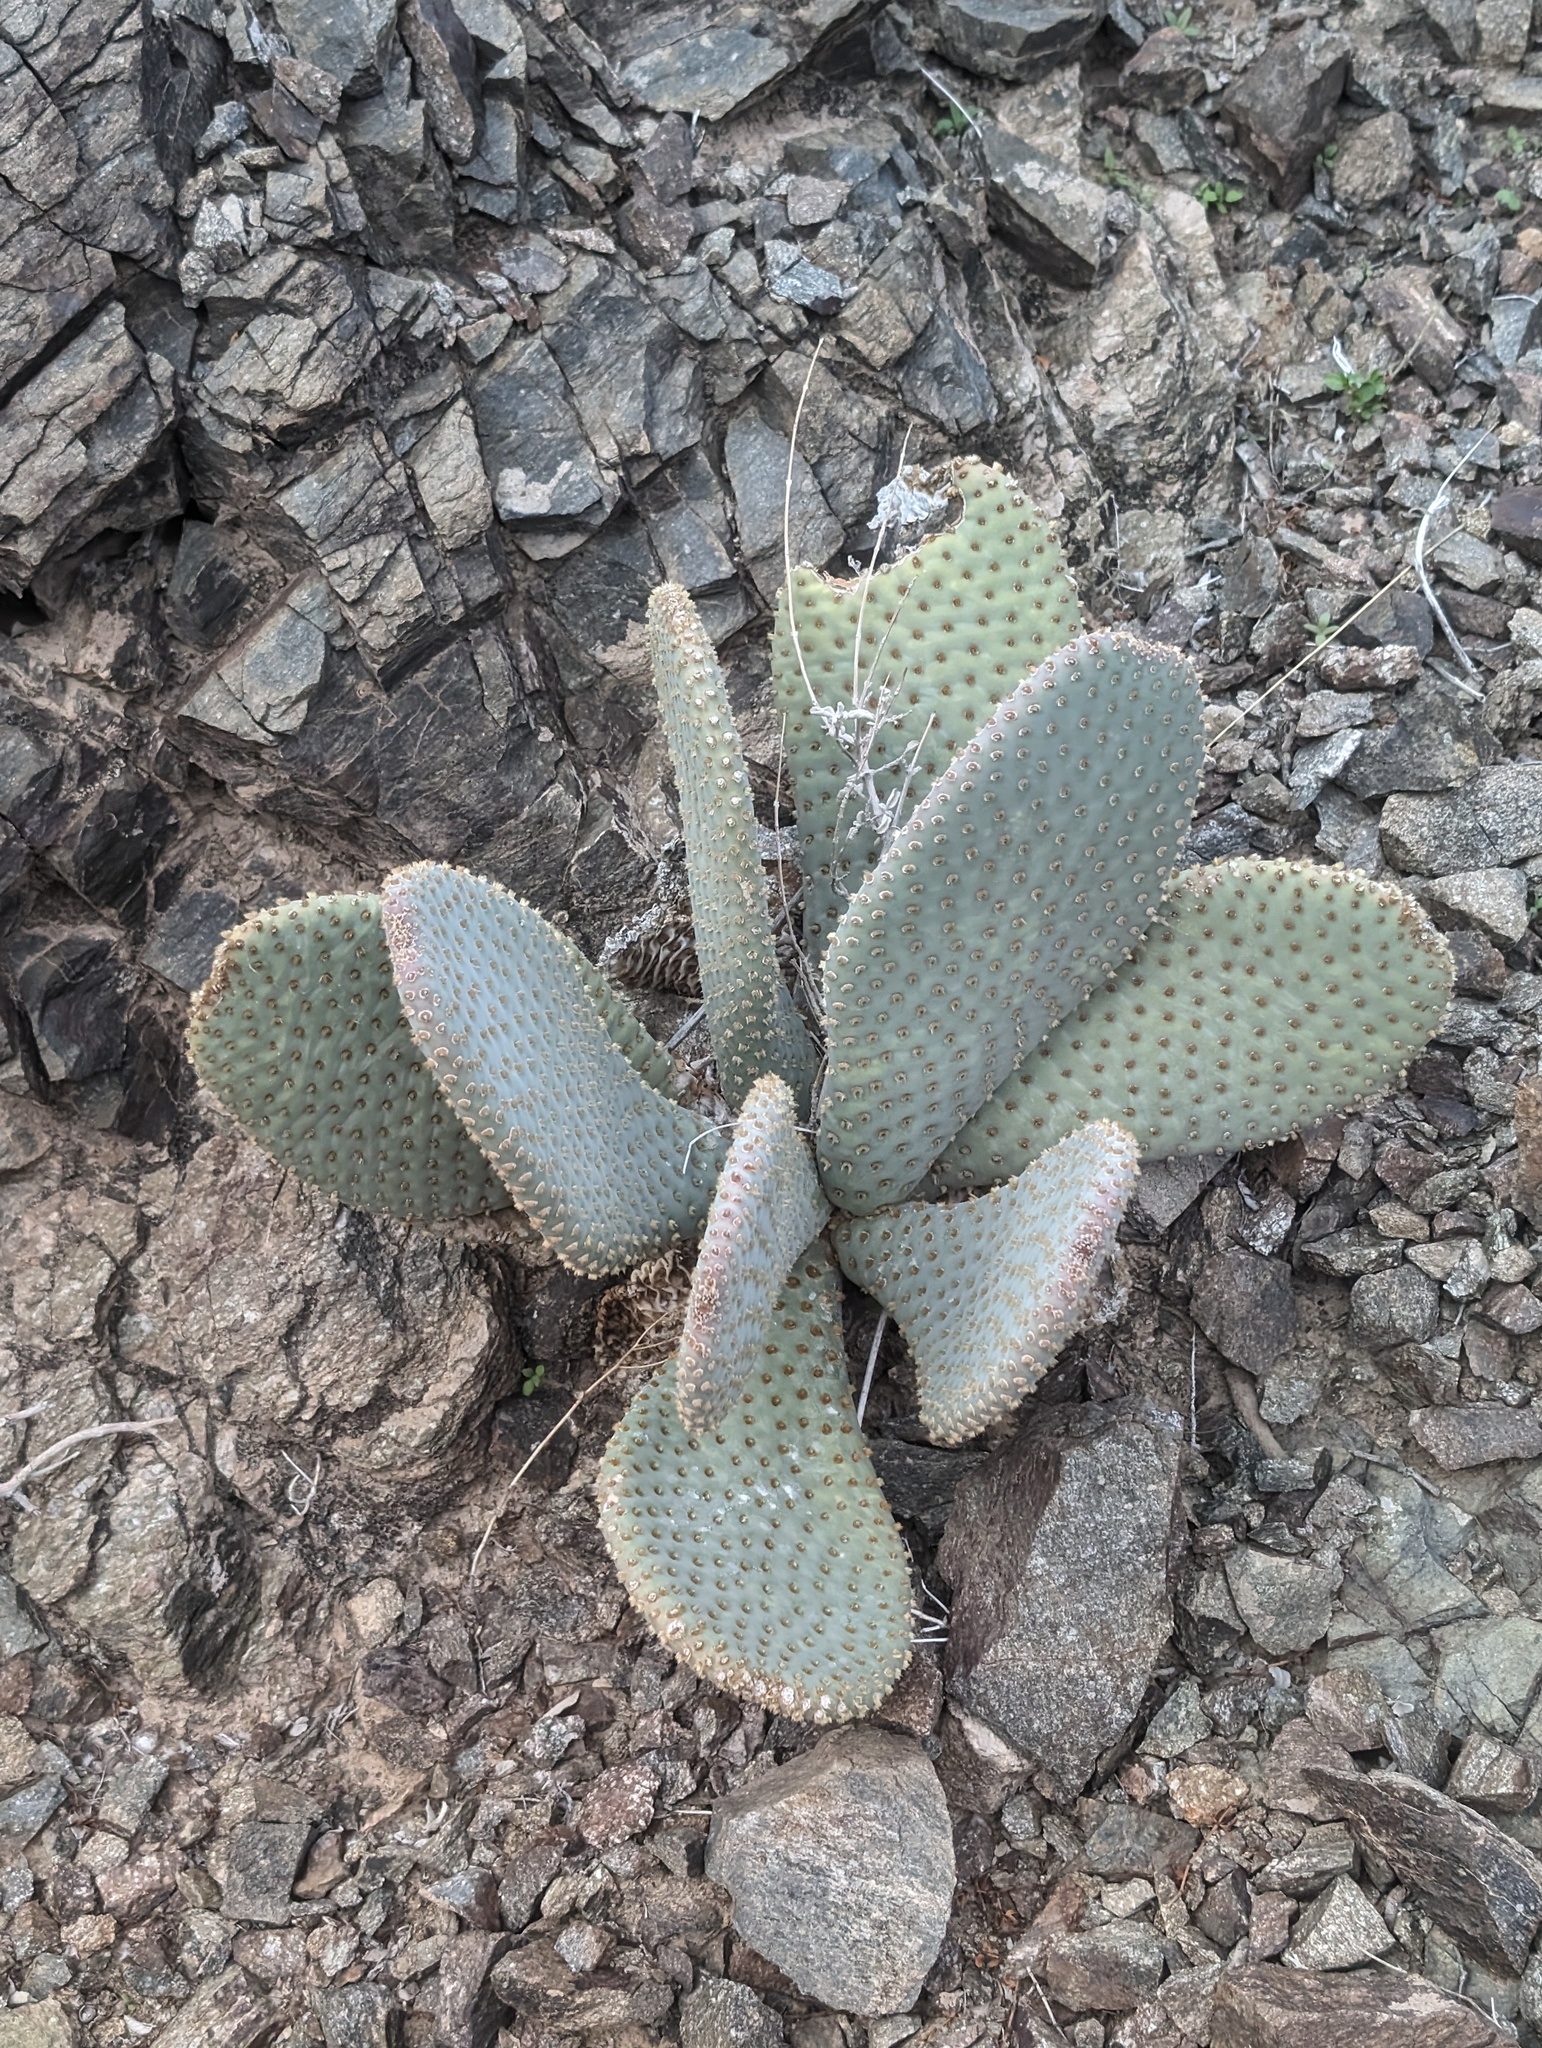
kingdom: Plantae
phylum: Tracheophyta
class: Magnoliopsida
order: Caryophyllales
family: Cactaceae
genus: Opuntia
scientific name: Opuntia basilaris
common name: Beavertail prickly-pear
